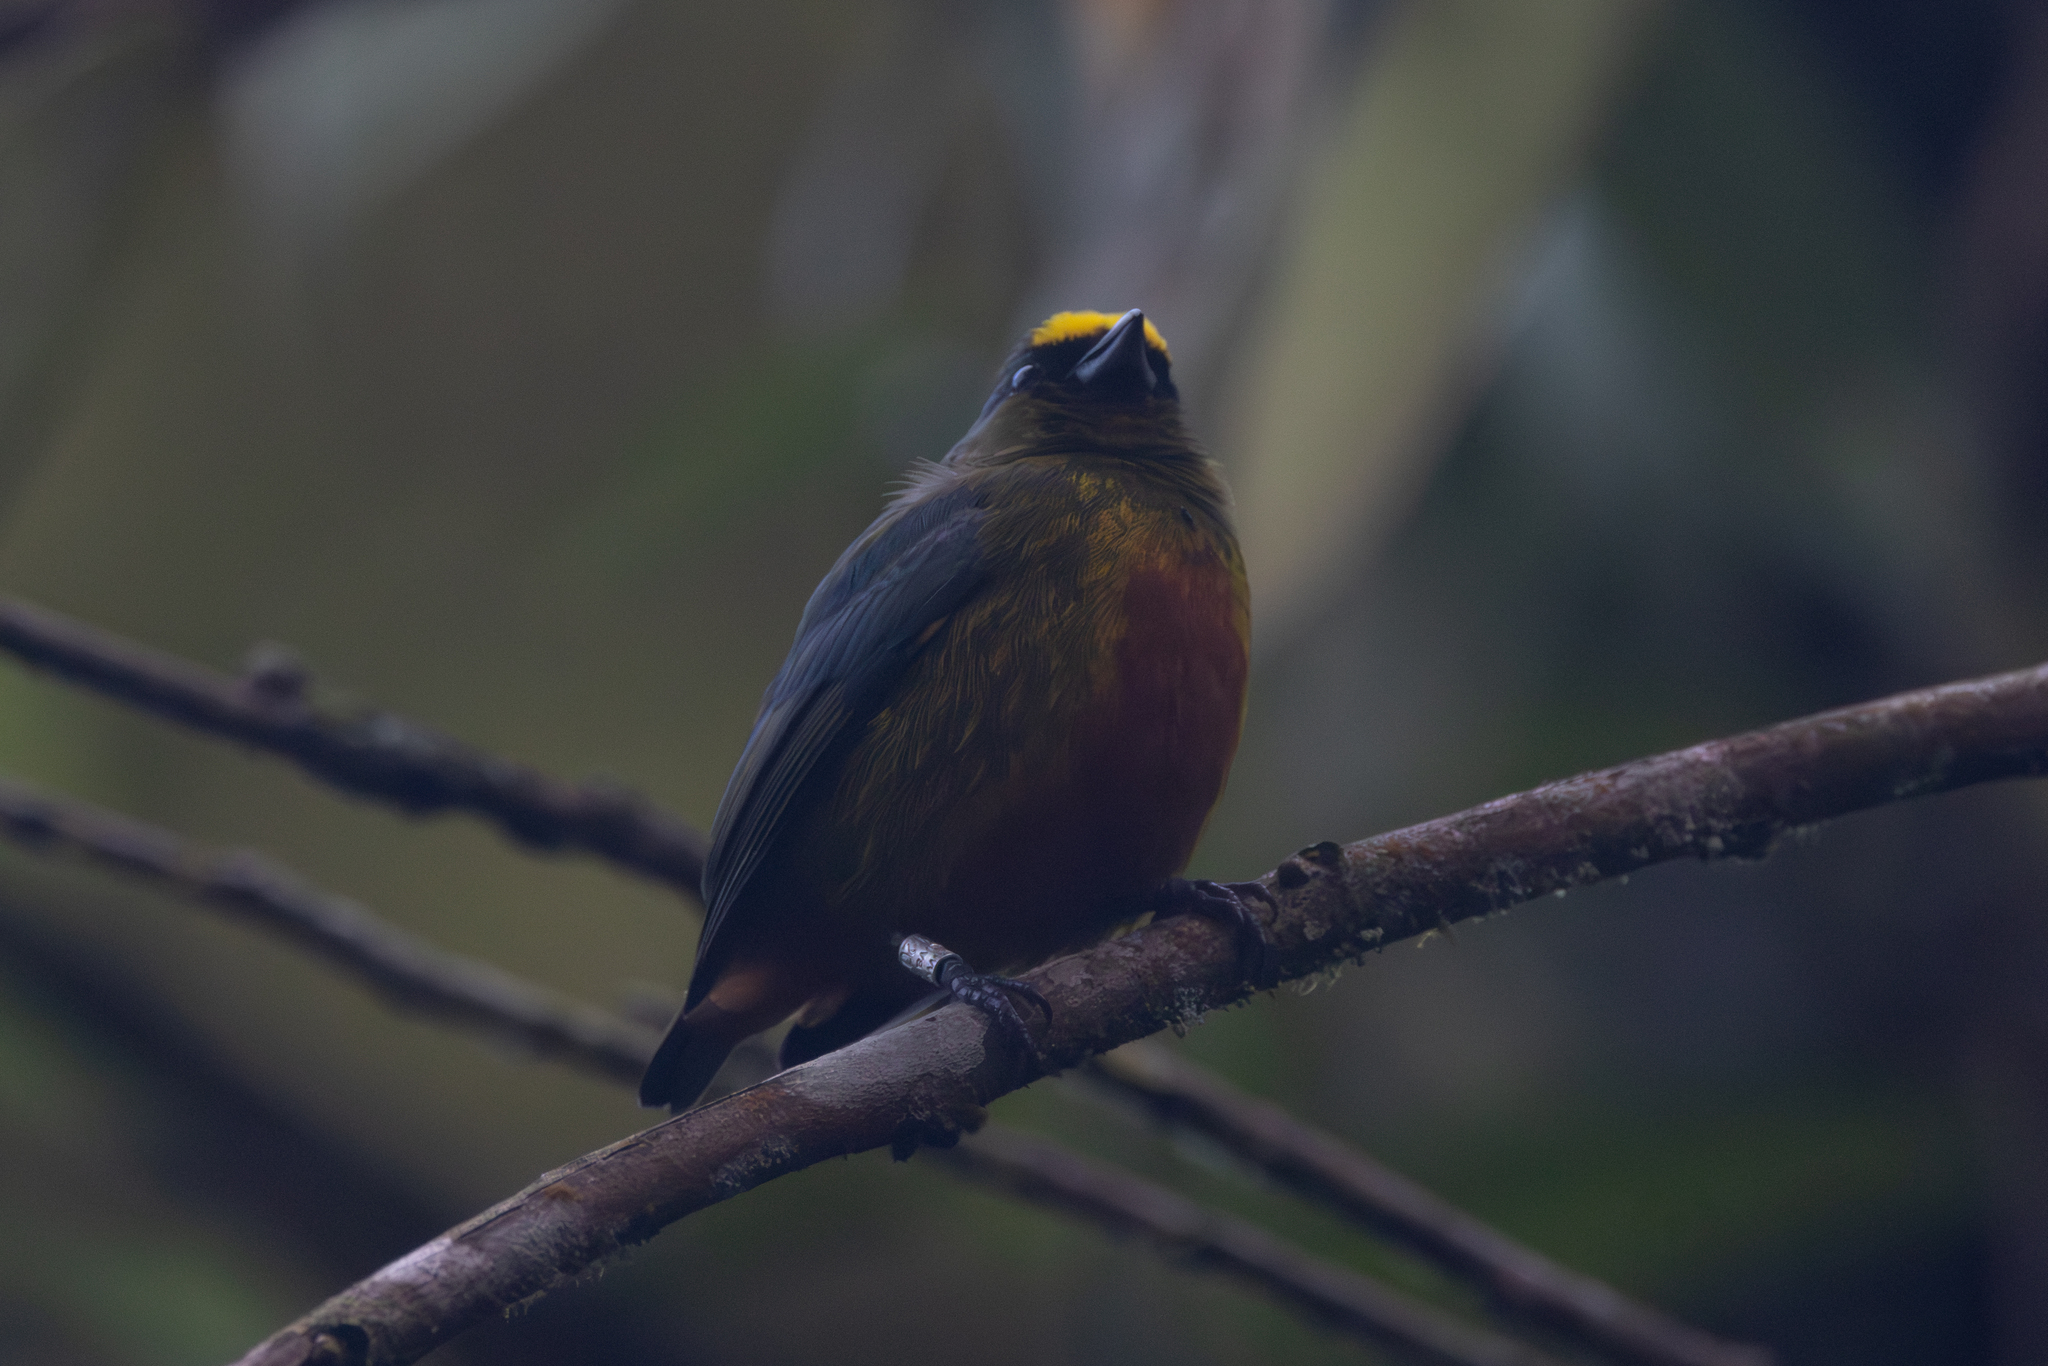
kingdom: Animalia
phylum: Chordata
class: Aves
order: Passeriformes
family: Fringillidae
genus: Euphonia
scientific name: Euphonia gouldi
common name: Olive-backed euphonia
